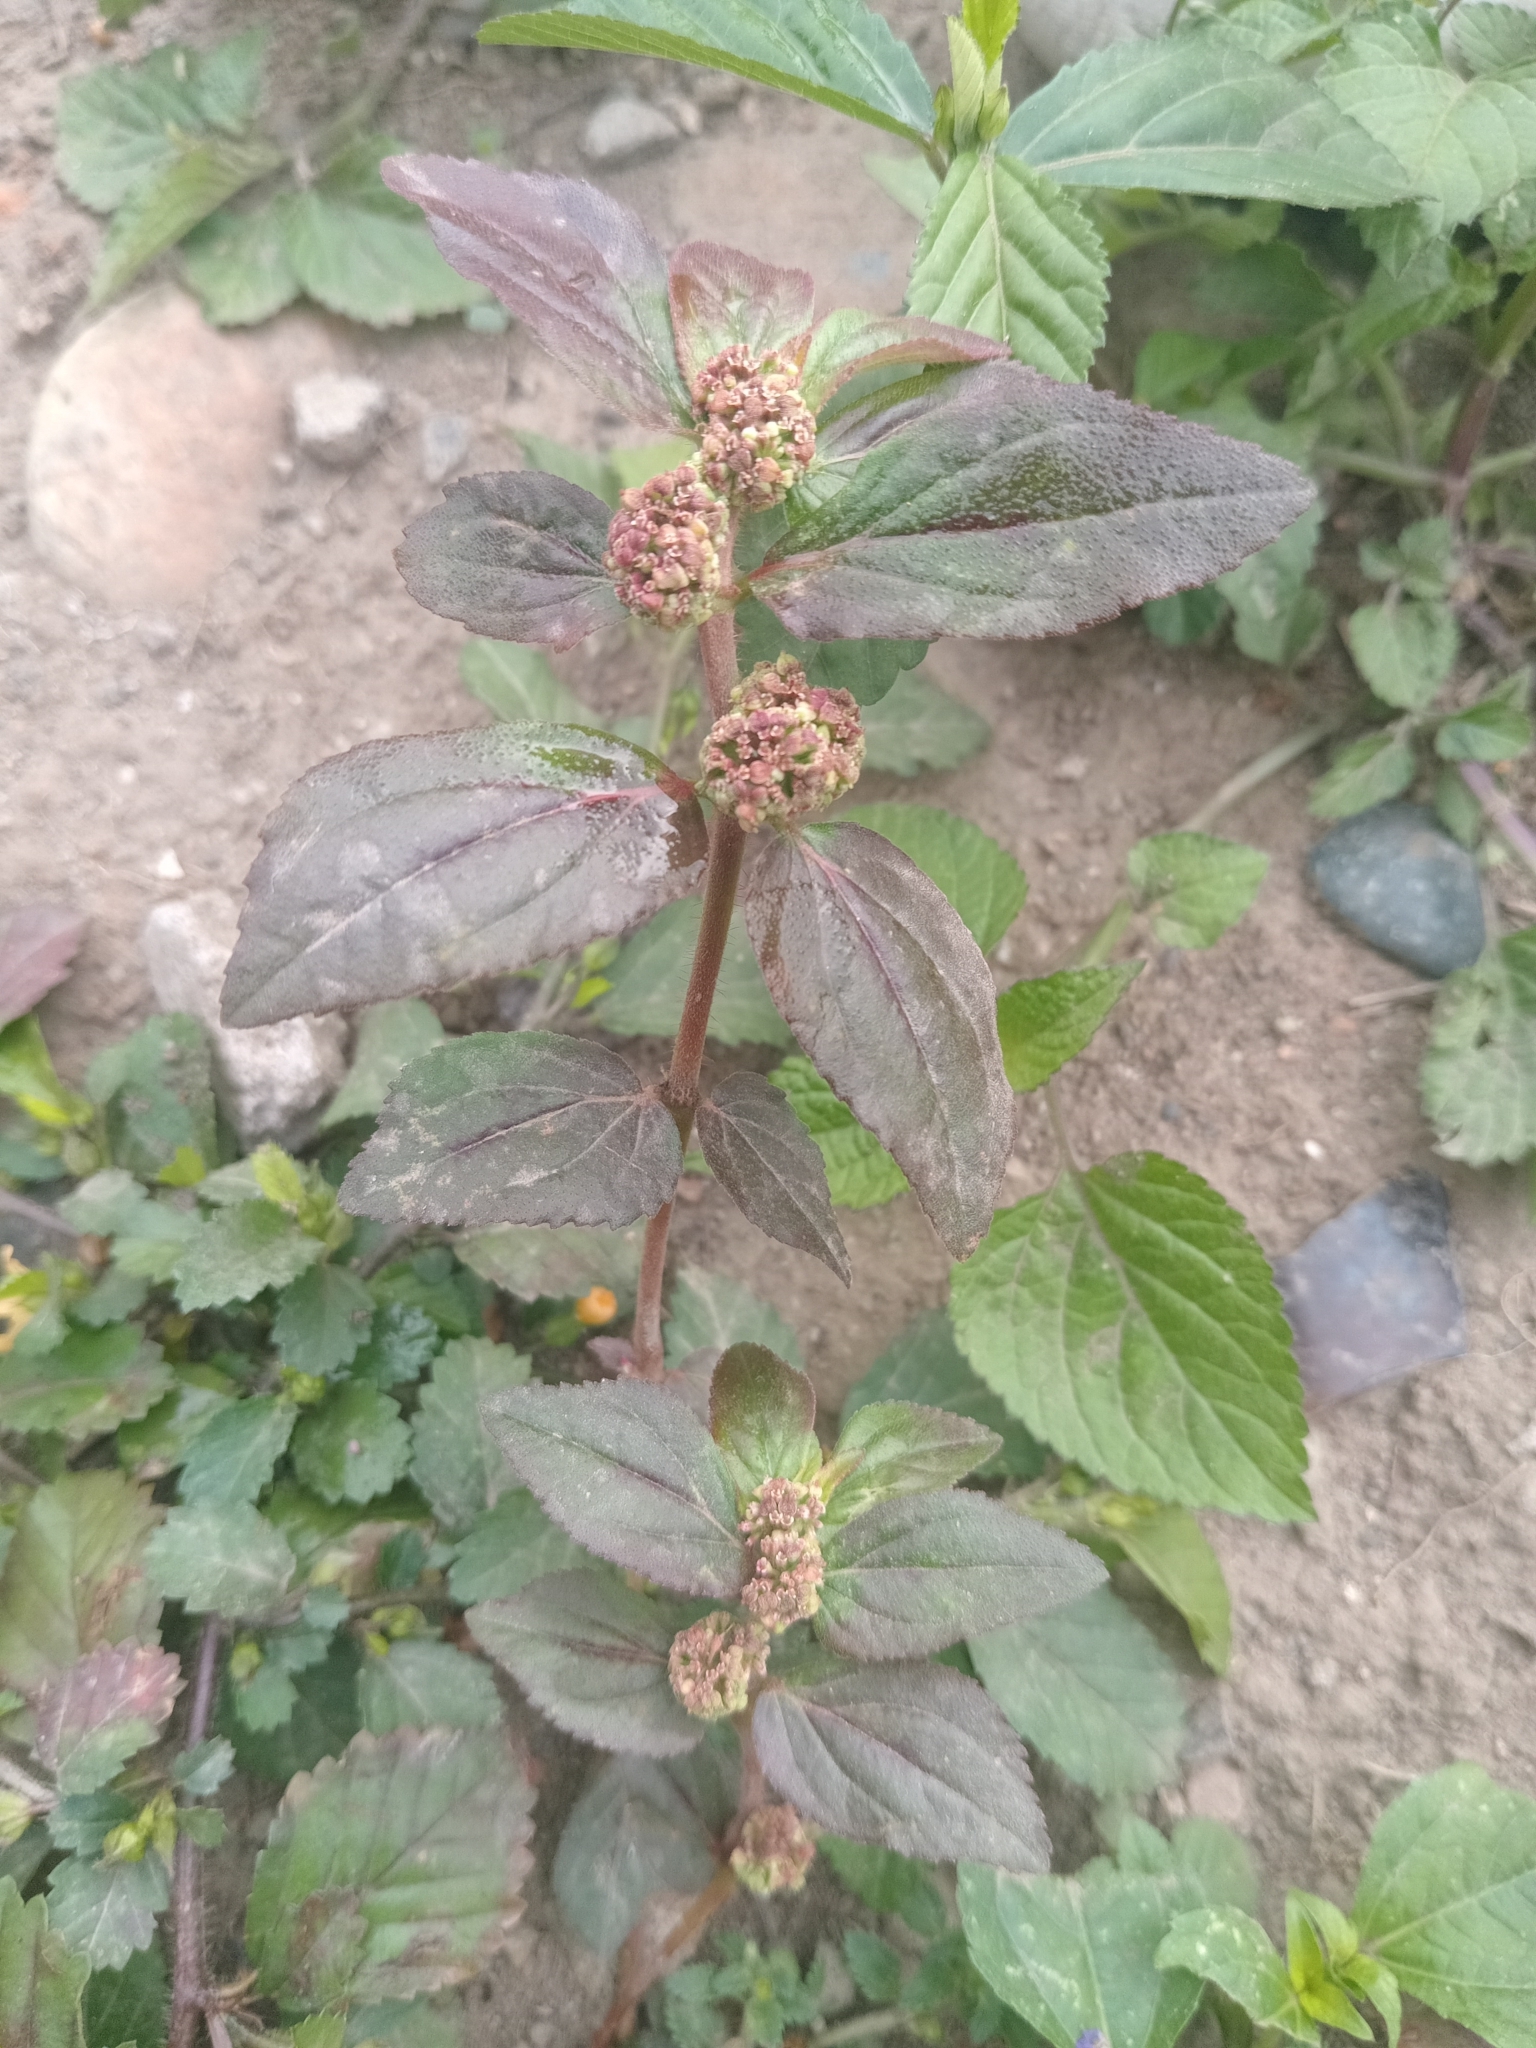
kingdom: Plantae
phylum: Tracheophyta
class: Magnoliopsida
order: Malpighiales
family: Euphorbiaceae
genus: Euphorbia
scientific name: Euphorbia hirta
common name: Pillpod sandmat
